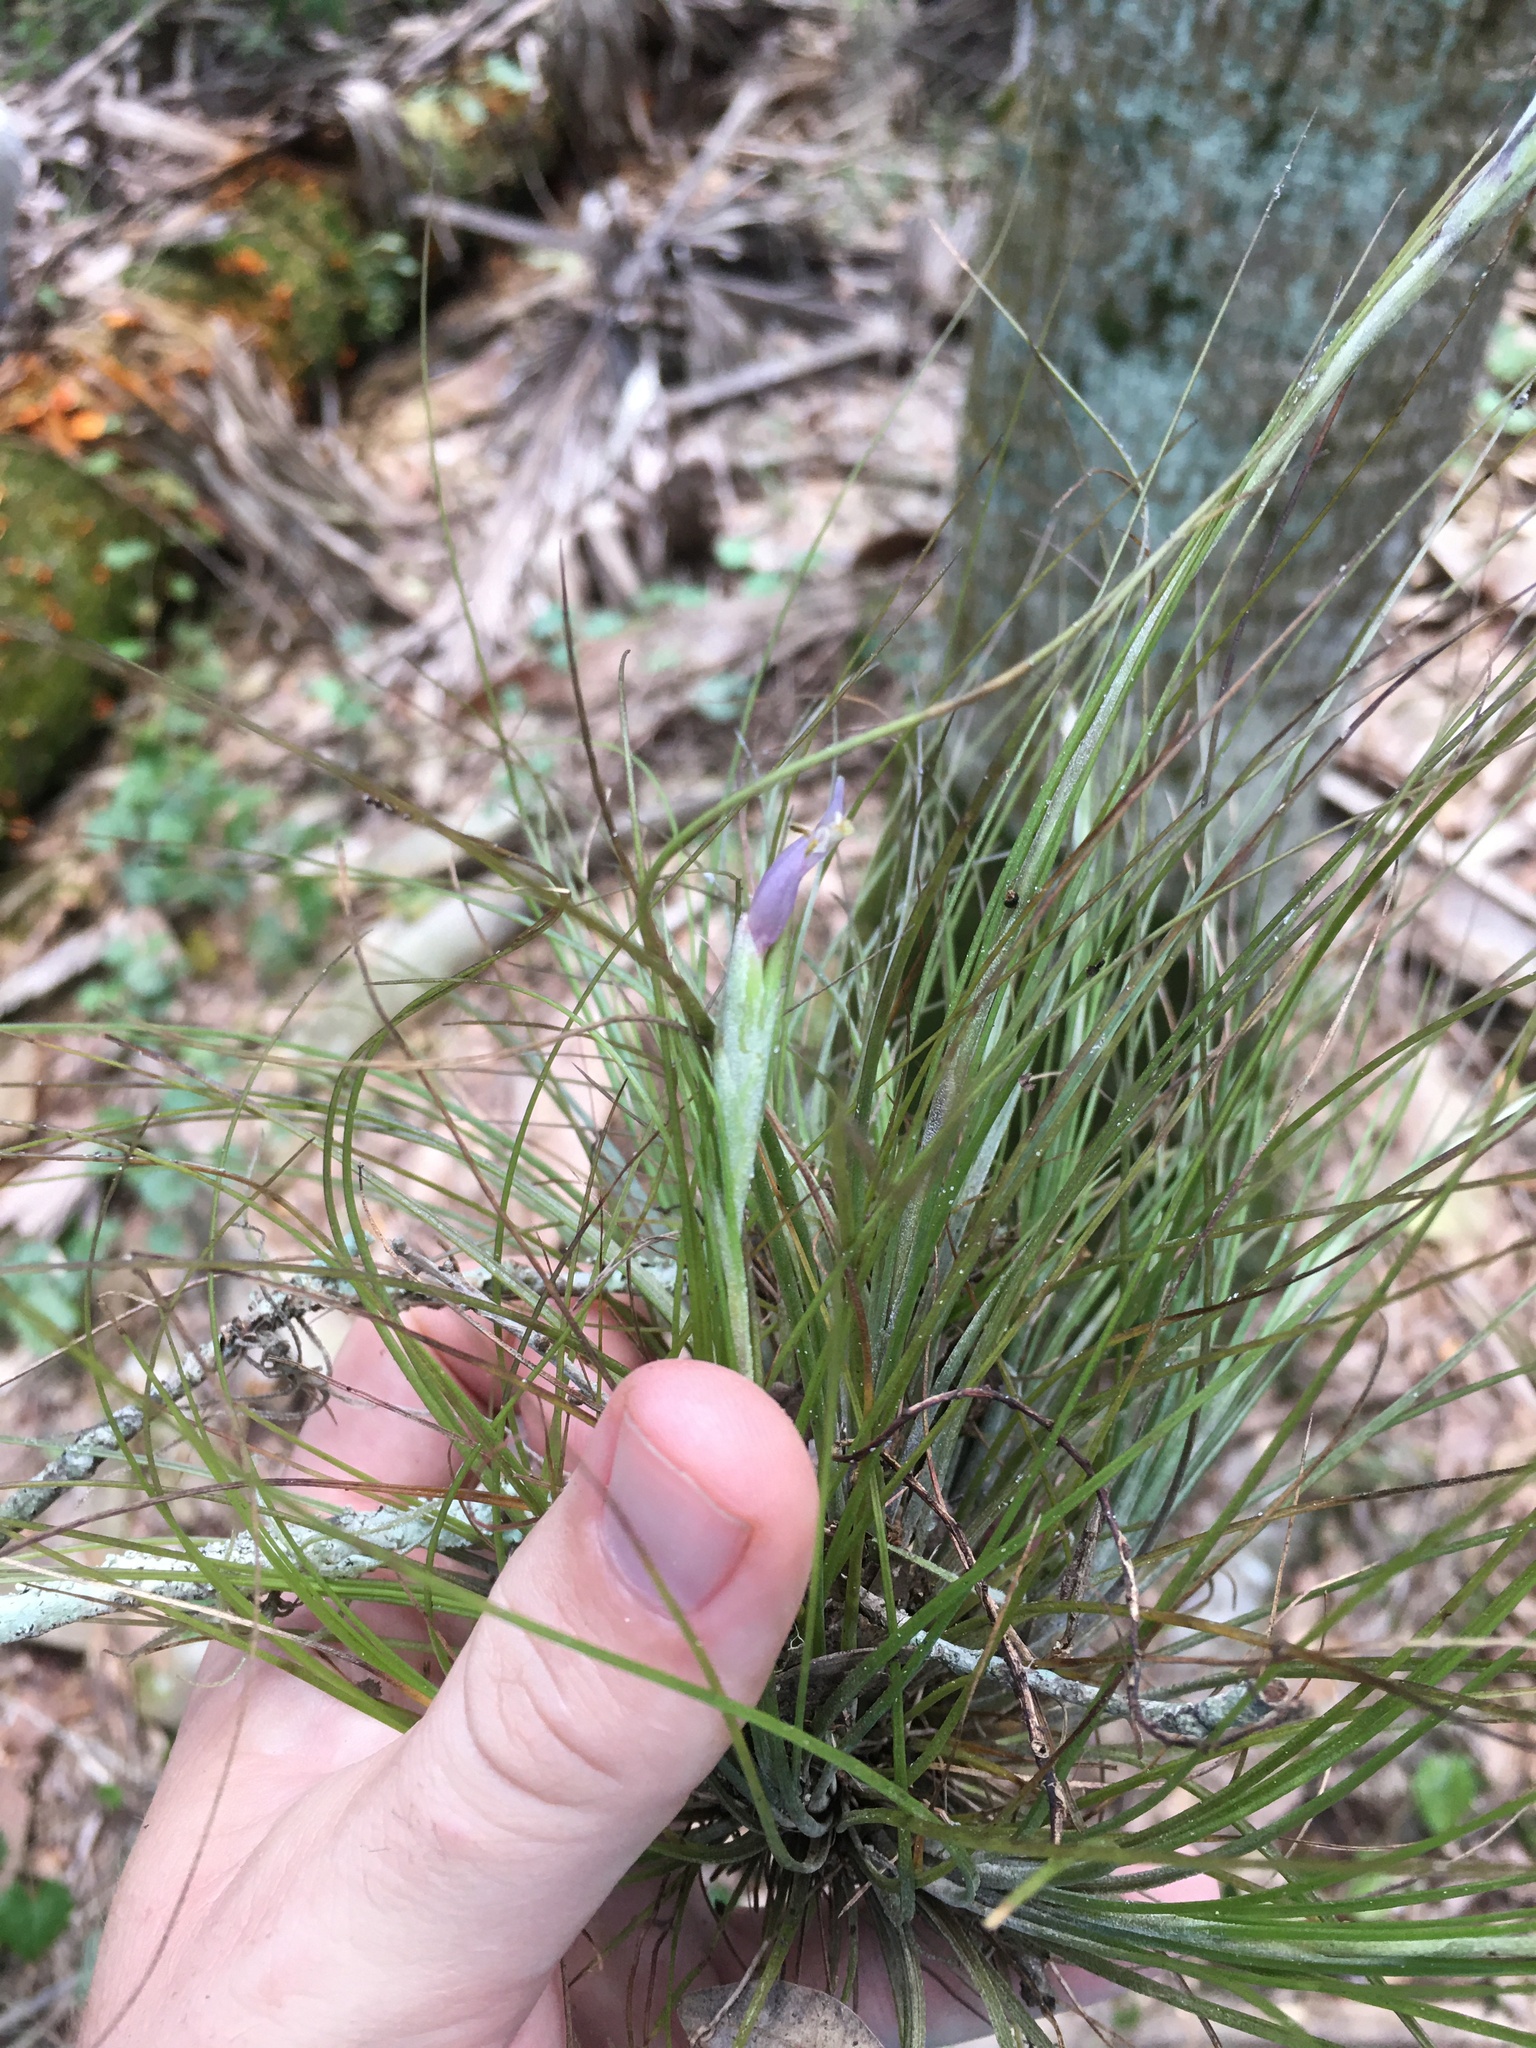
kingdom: Plantae
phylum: Tracheophyta
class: Liliopsida
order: Poales
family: Bromeliaceae
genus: Tillandsia
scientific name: Tillandsia setacea
